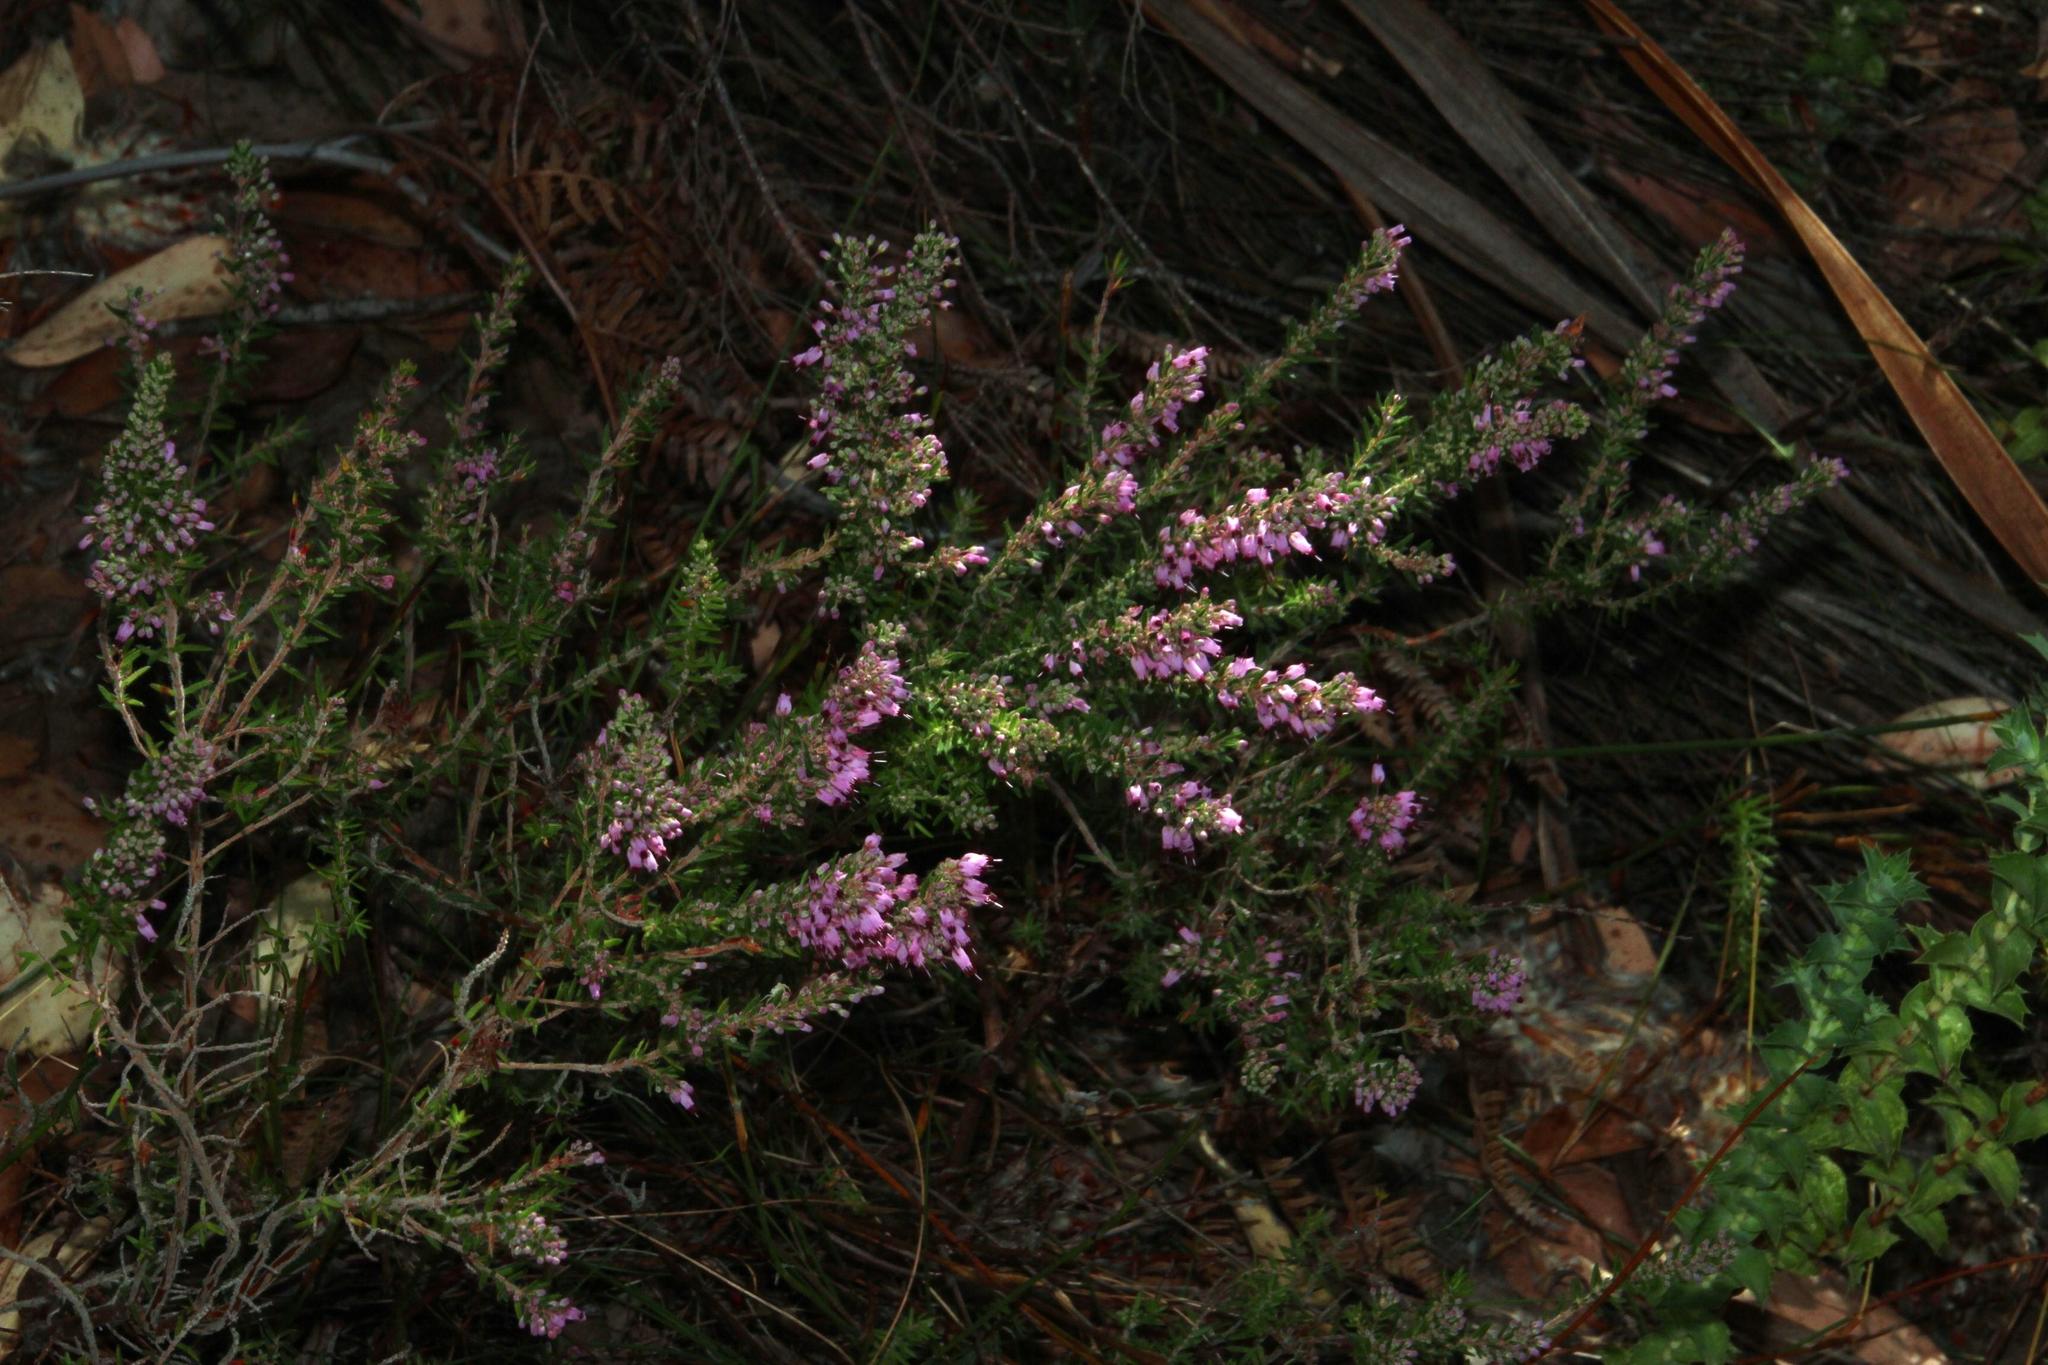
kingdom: Plantae
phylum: Tracheophyta
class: Magnoliopsida
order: Ericales
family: Ericaceae
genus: Erica
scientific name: Erica nudiflora
